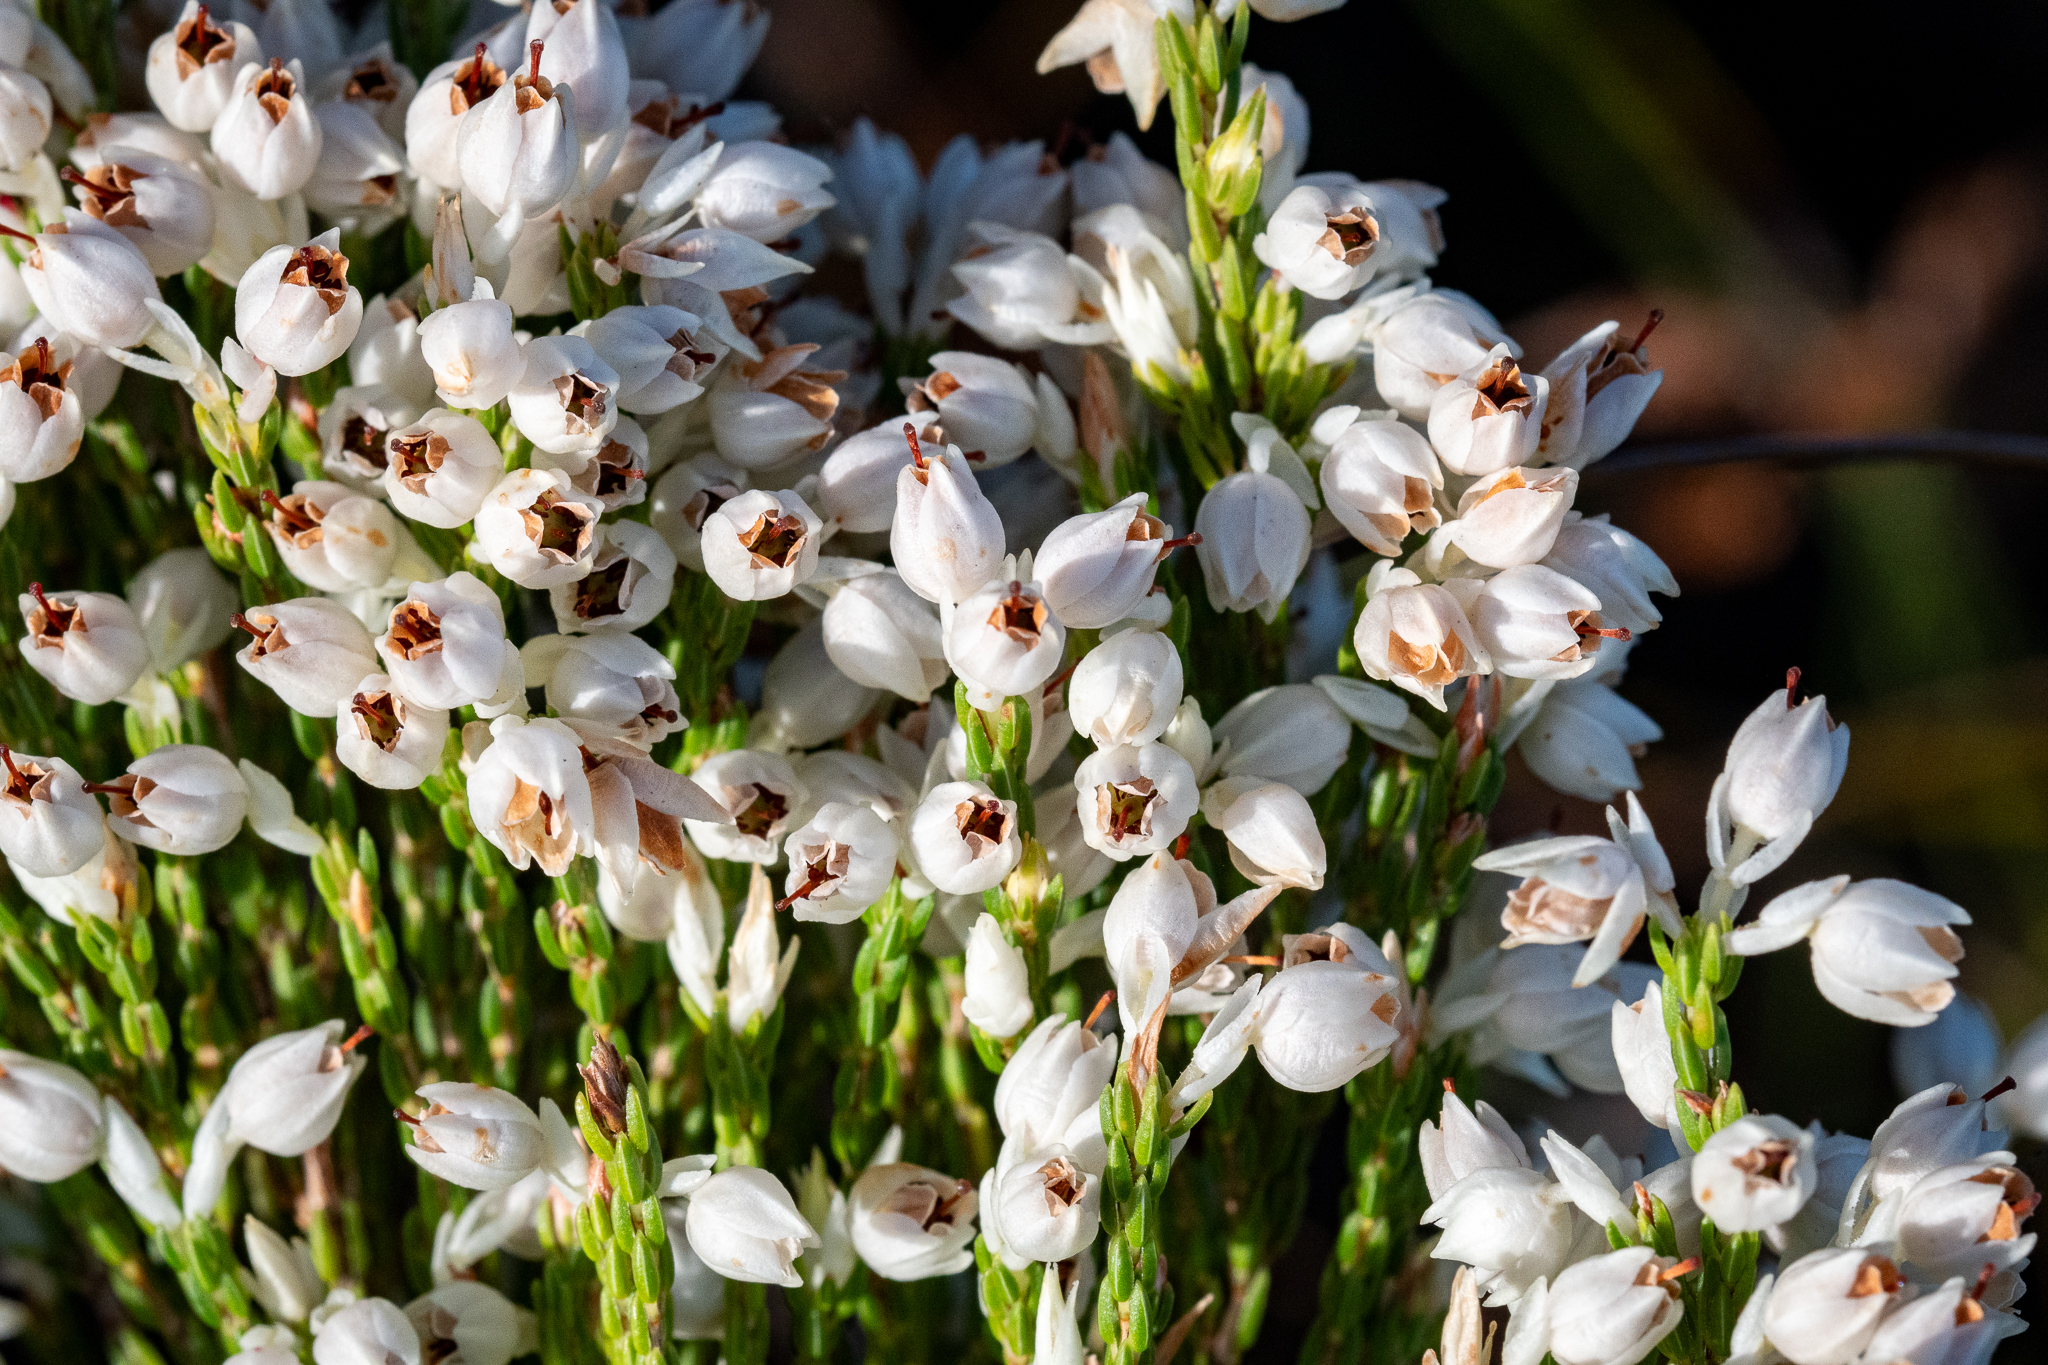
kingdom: Plantae
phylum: Tracheophyta
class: Magnoliopsida
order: Ericales
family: Ericaceae
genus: Erica
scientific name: Erica nivea
